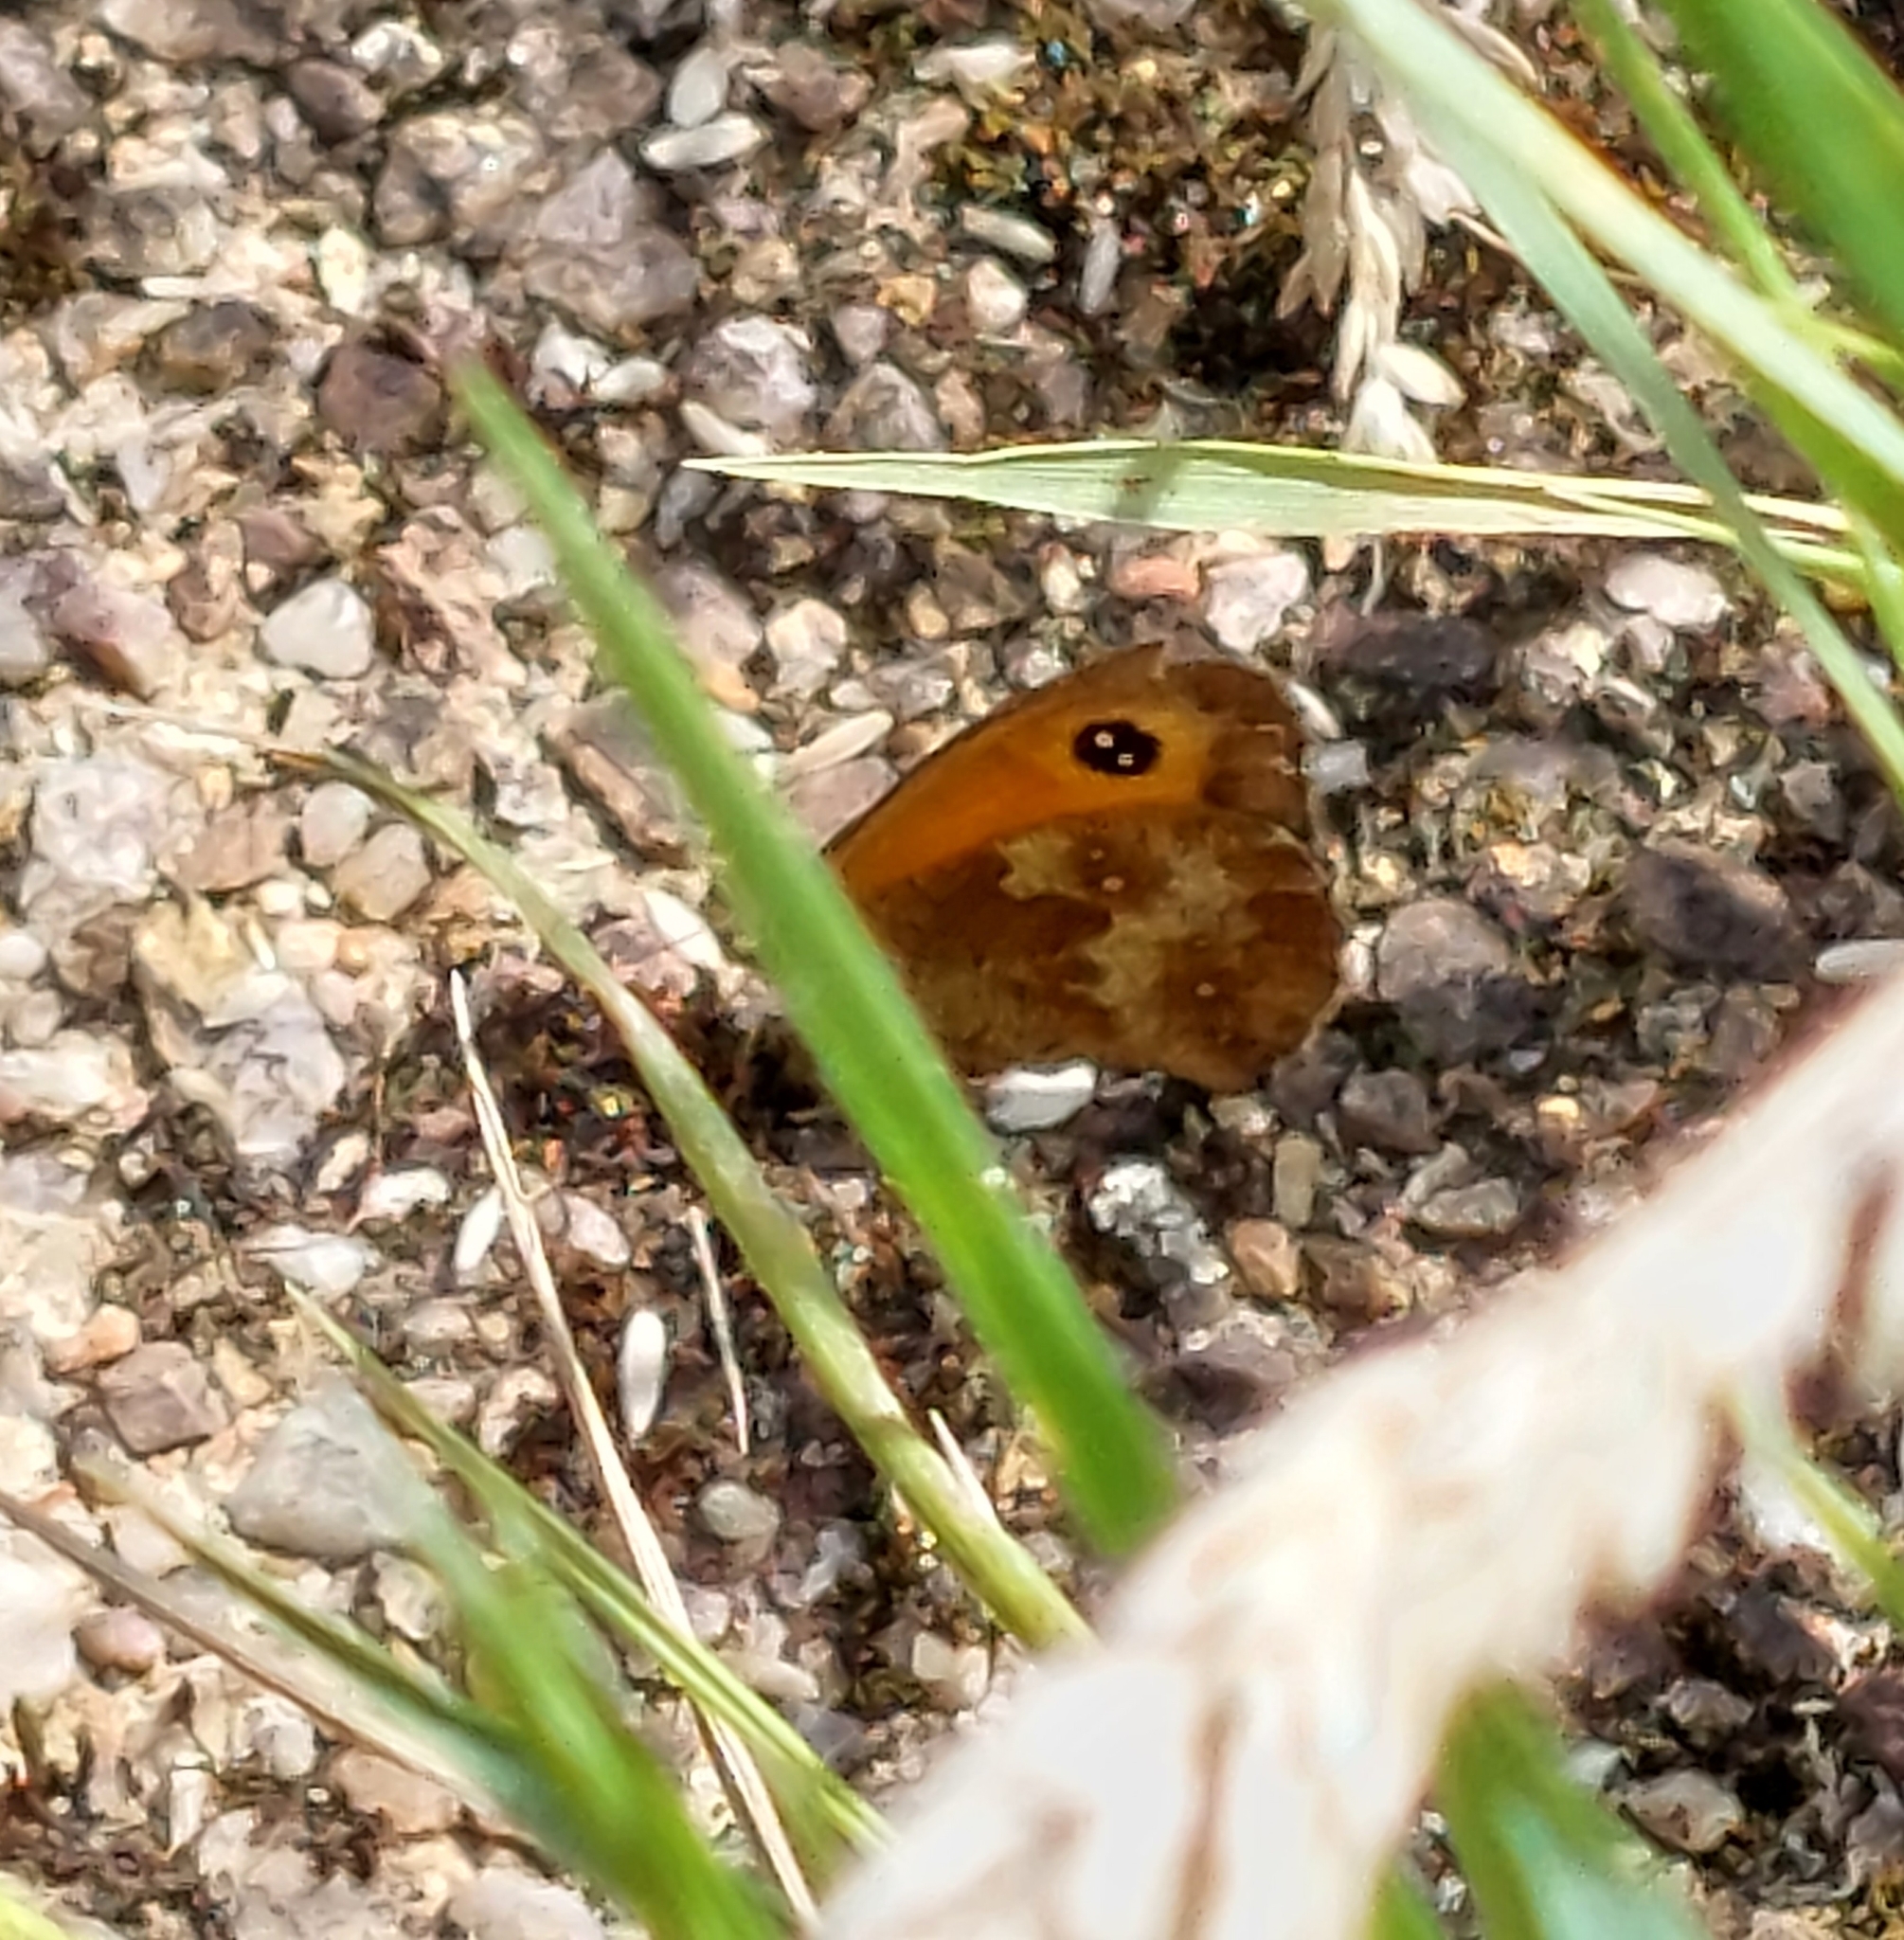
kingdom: Animalia
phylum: Arthropoda
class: Insecta
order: Lepidoptera
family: Nymphalidae
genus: Pyronia
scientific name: Pyronia tithonus
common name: Gatekeeper
